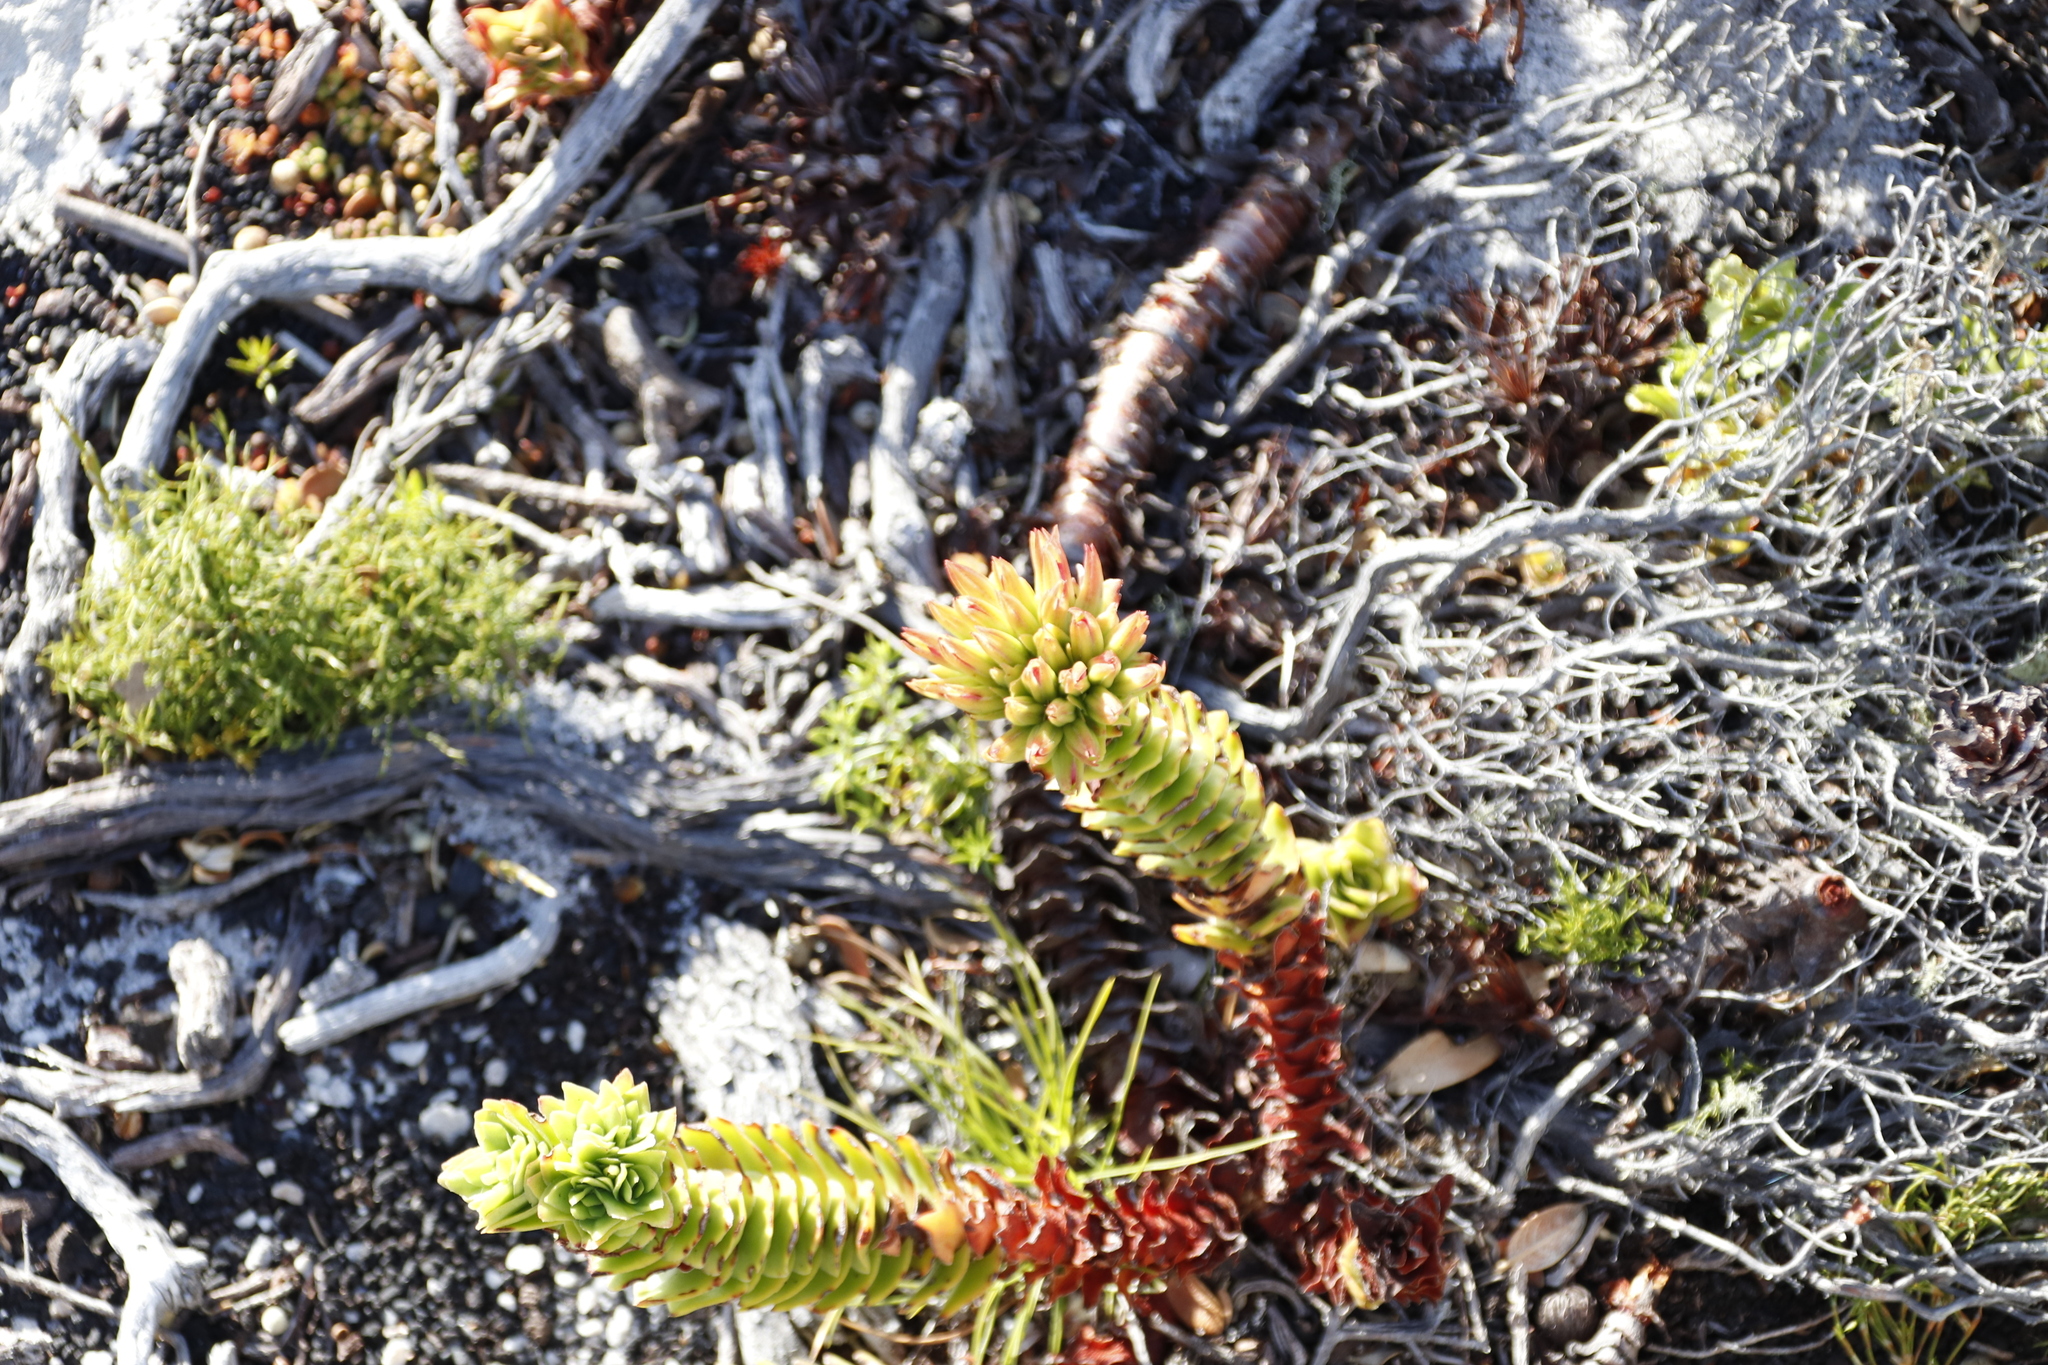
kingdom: Plantae
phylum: Tracheophyta
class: Magnoliopsida
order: Saxifragales
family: Crassulaceae
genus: Crassula
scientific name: Crassula coccinea
